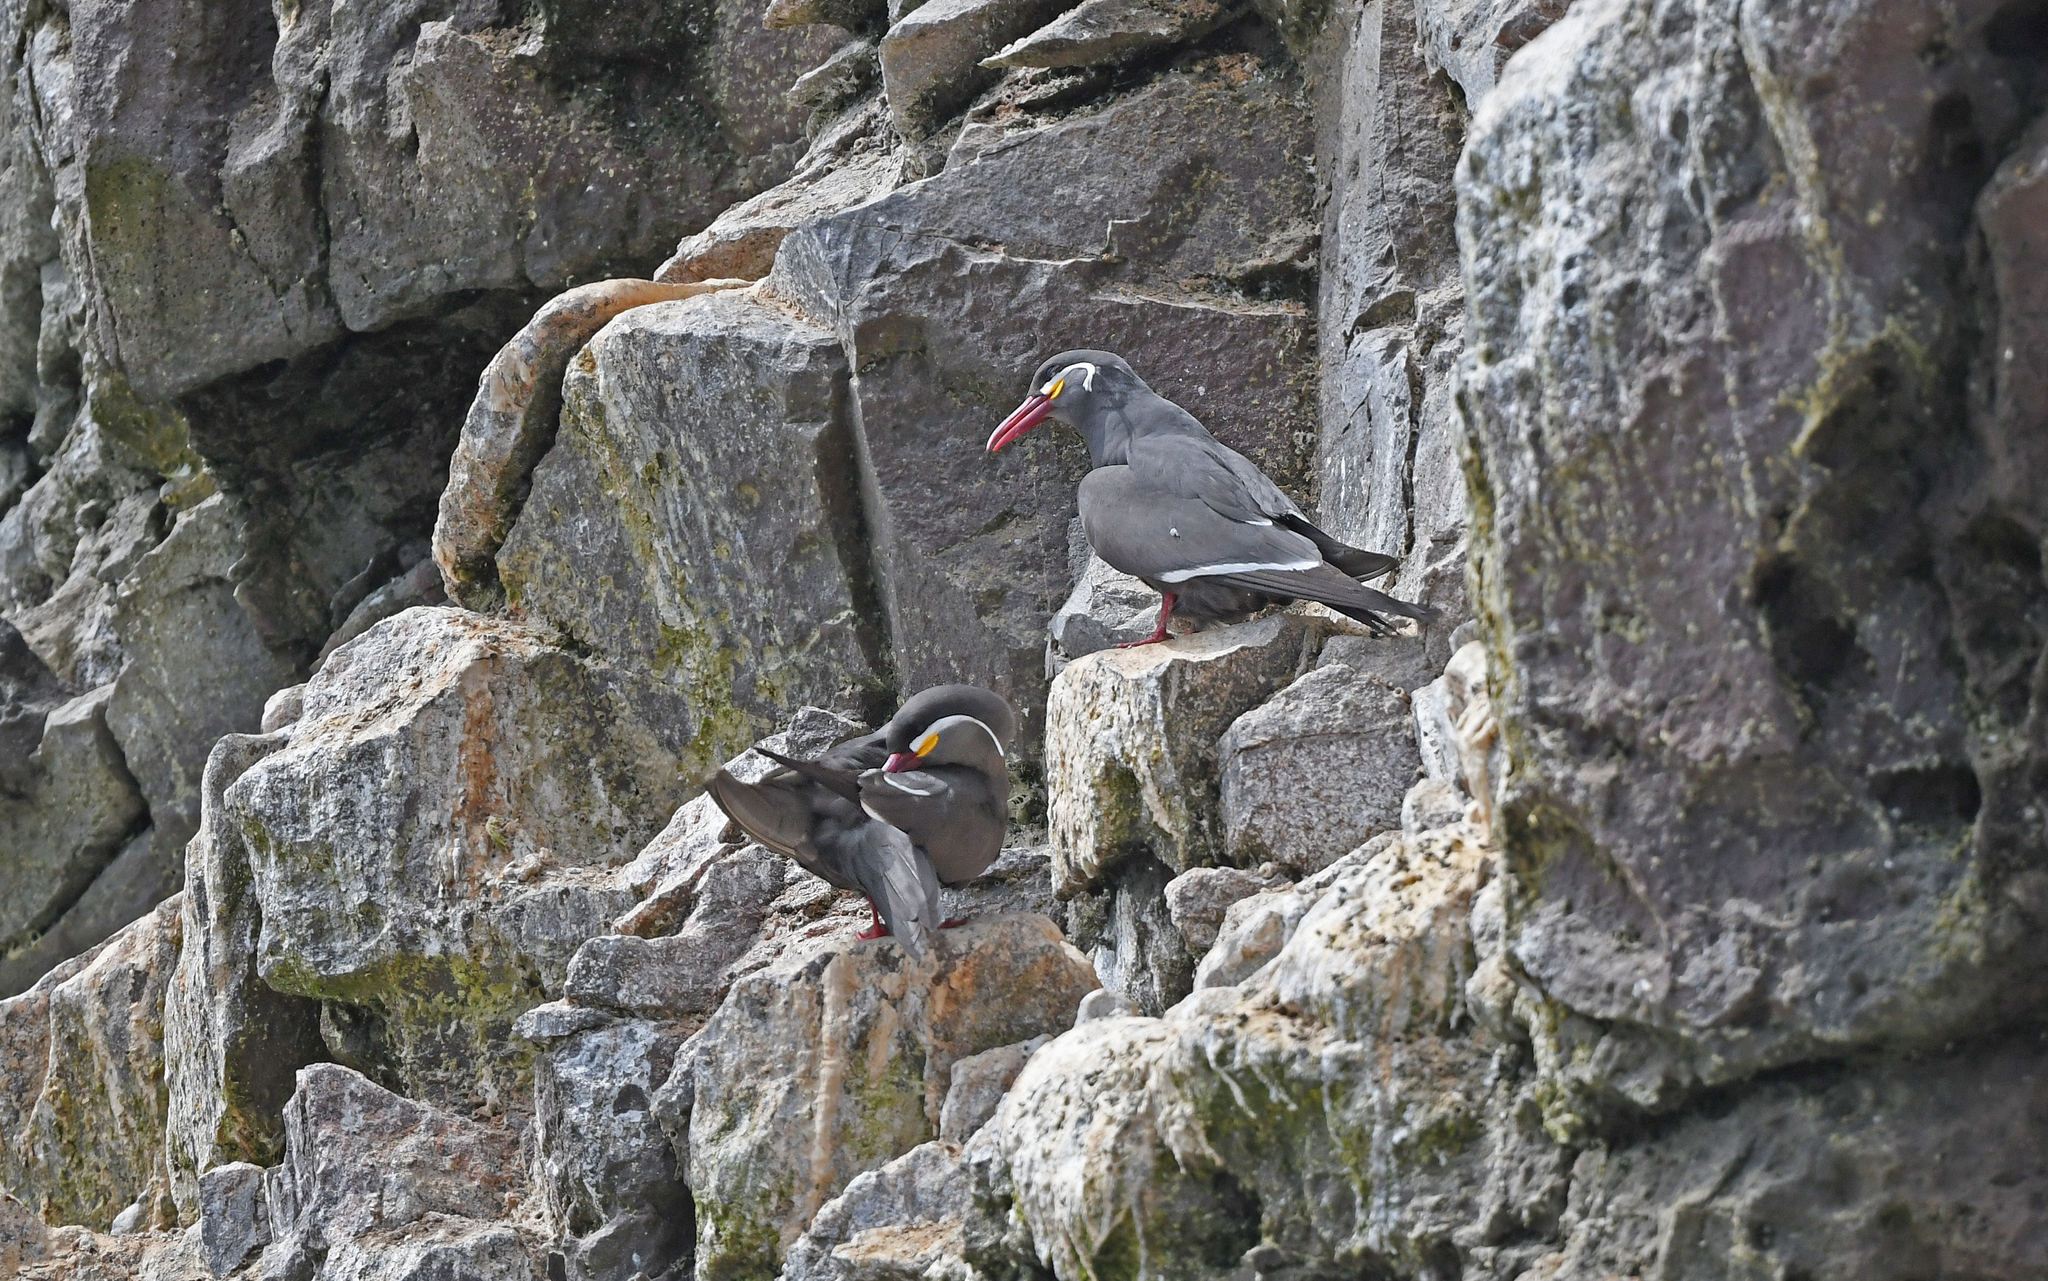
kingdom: Animalia
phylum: Chordata
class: Aves
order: Charadriiformes
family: Laridae
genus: Larosterna
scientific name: Larosterna inca
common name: Inca tern
